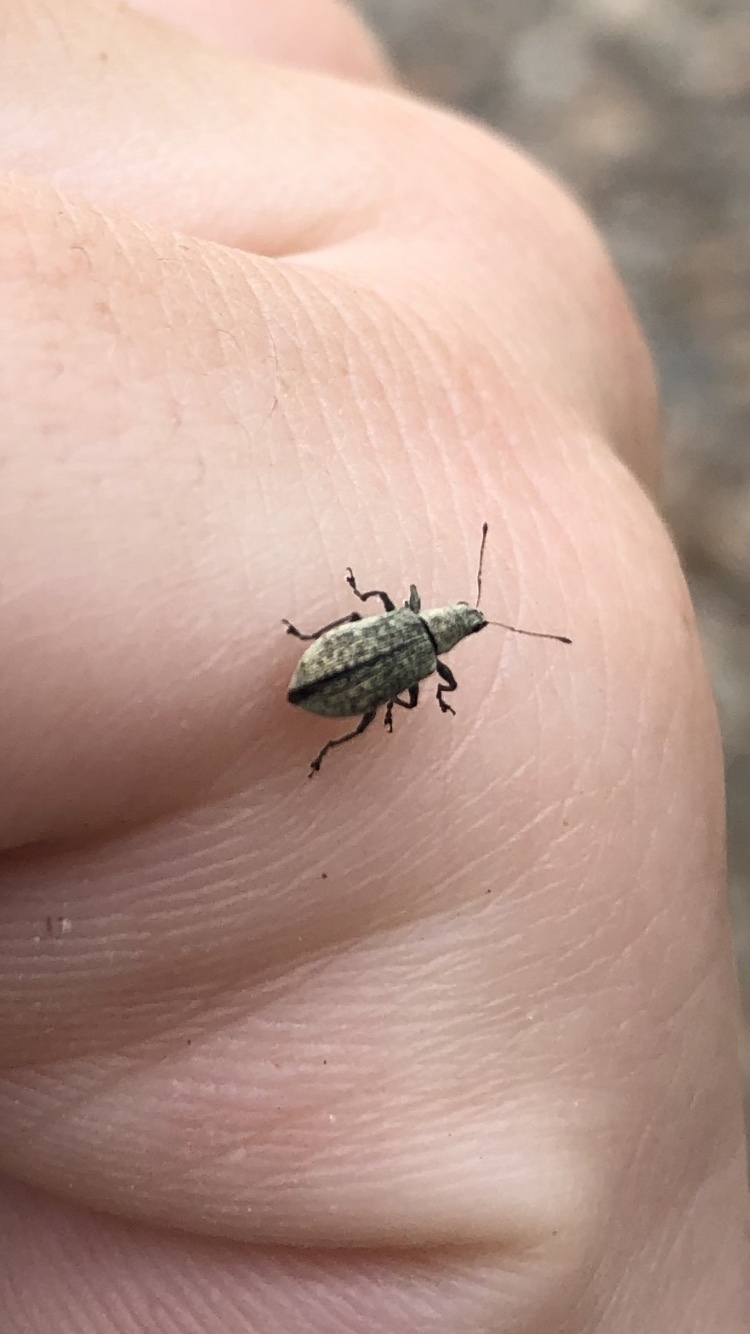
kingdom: Animalia
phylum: Arthropoda
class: Insecta
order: Coleoptera
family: Curculionidae
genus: Polydrusus
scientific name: Polydrusus cervinus
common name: Weevil
